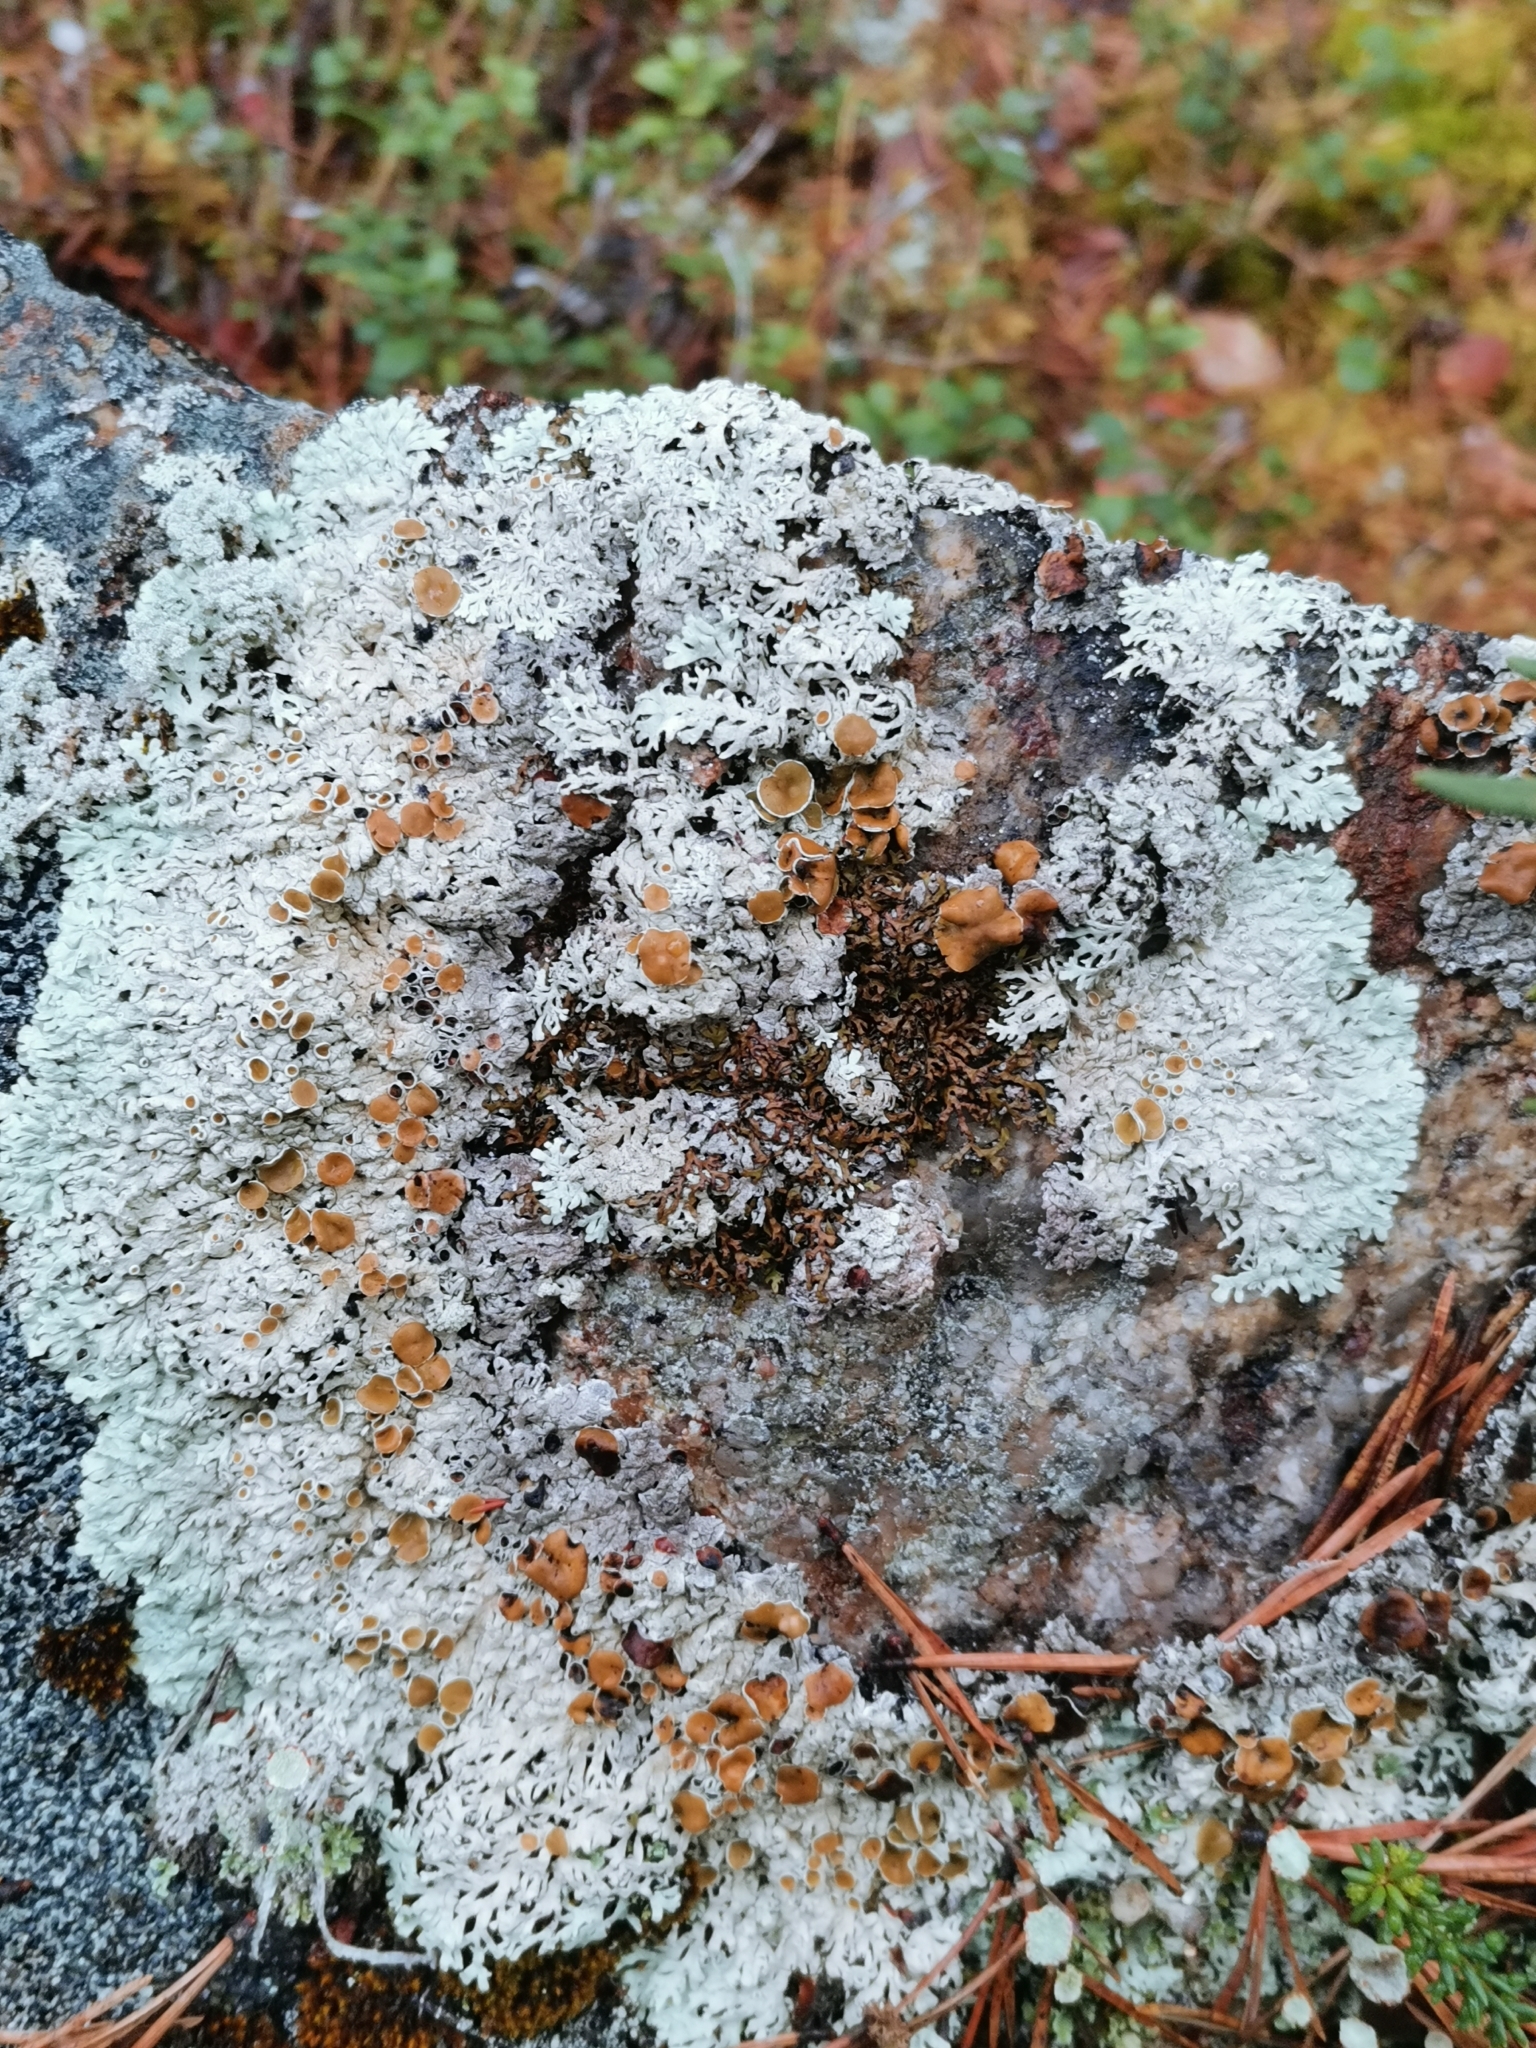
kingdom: Fungi
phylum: Ascomycota
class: Lecanoromycetes
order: Lecanorales
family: Parmeliaceae
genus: Arctoparmelia
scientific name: Arctoparmelia centrifuga
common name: Concentric ring lichen
